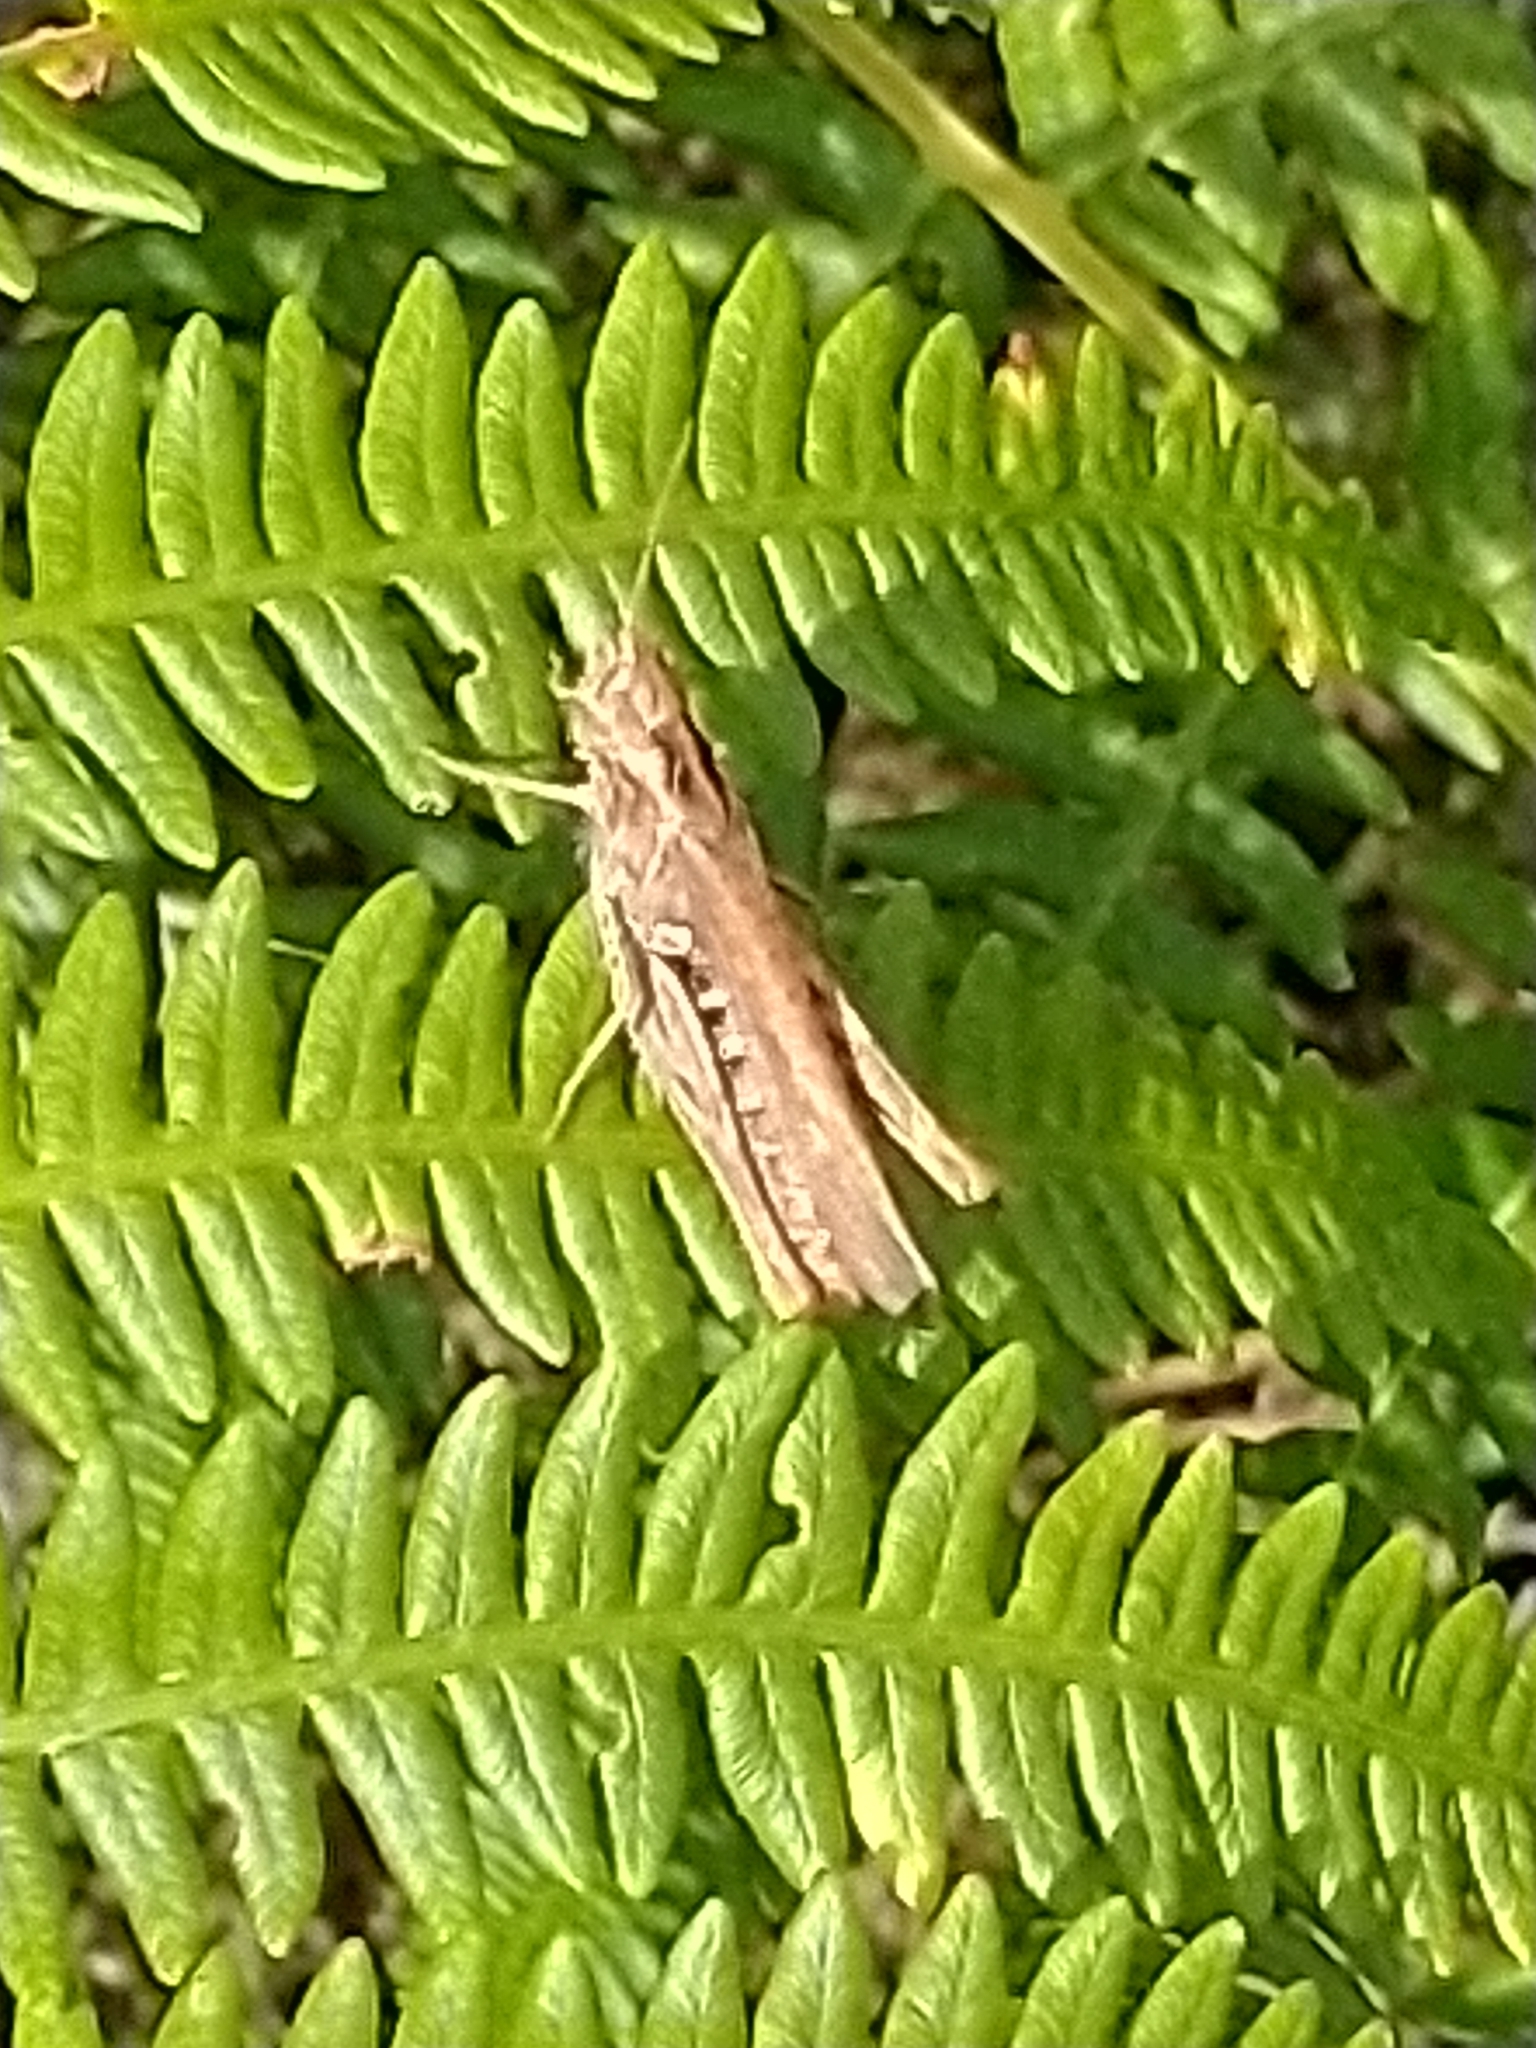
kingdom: Animalia
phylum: Arthropoda
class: Insecta
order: Orthoptera
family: Acrididae
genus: Chorthippus
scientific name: Chorthippus brunneus
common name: Field grasshopper
